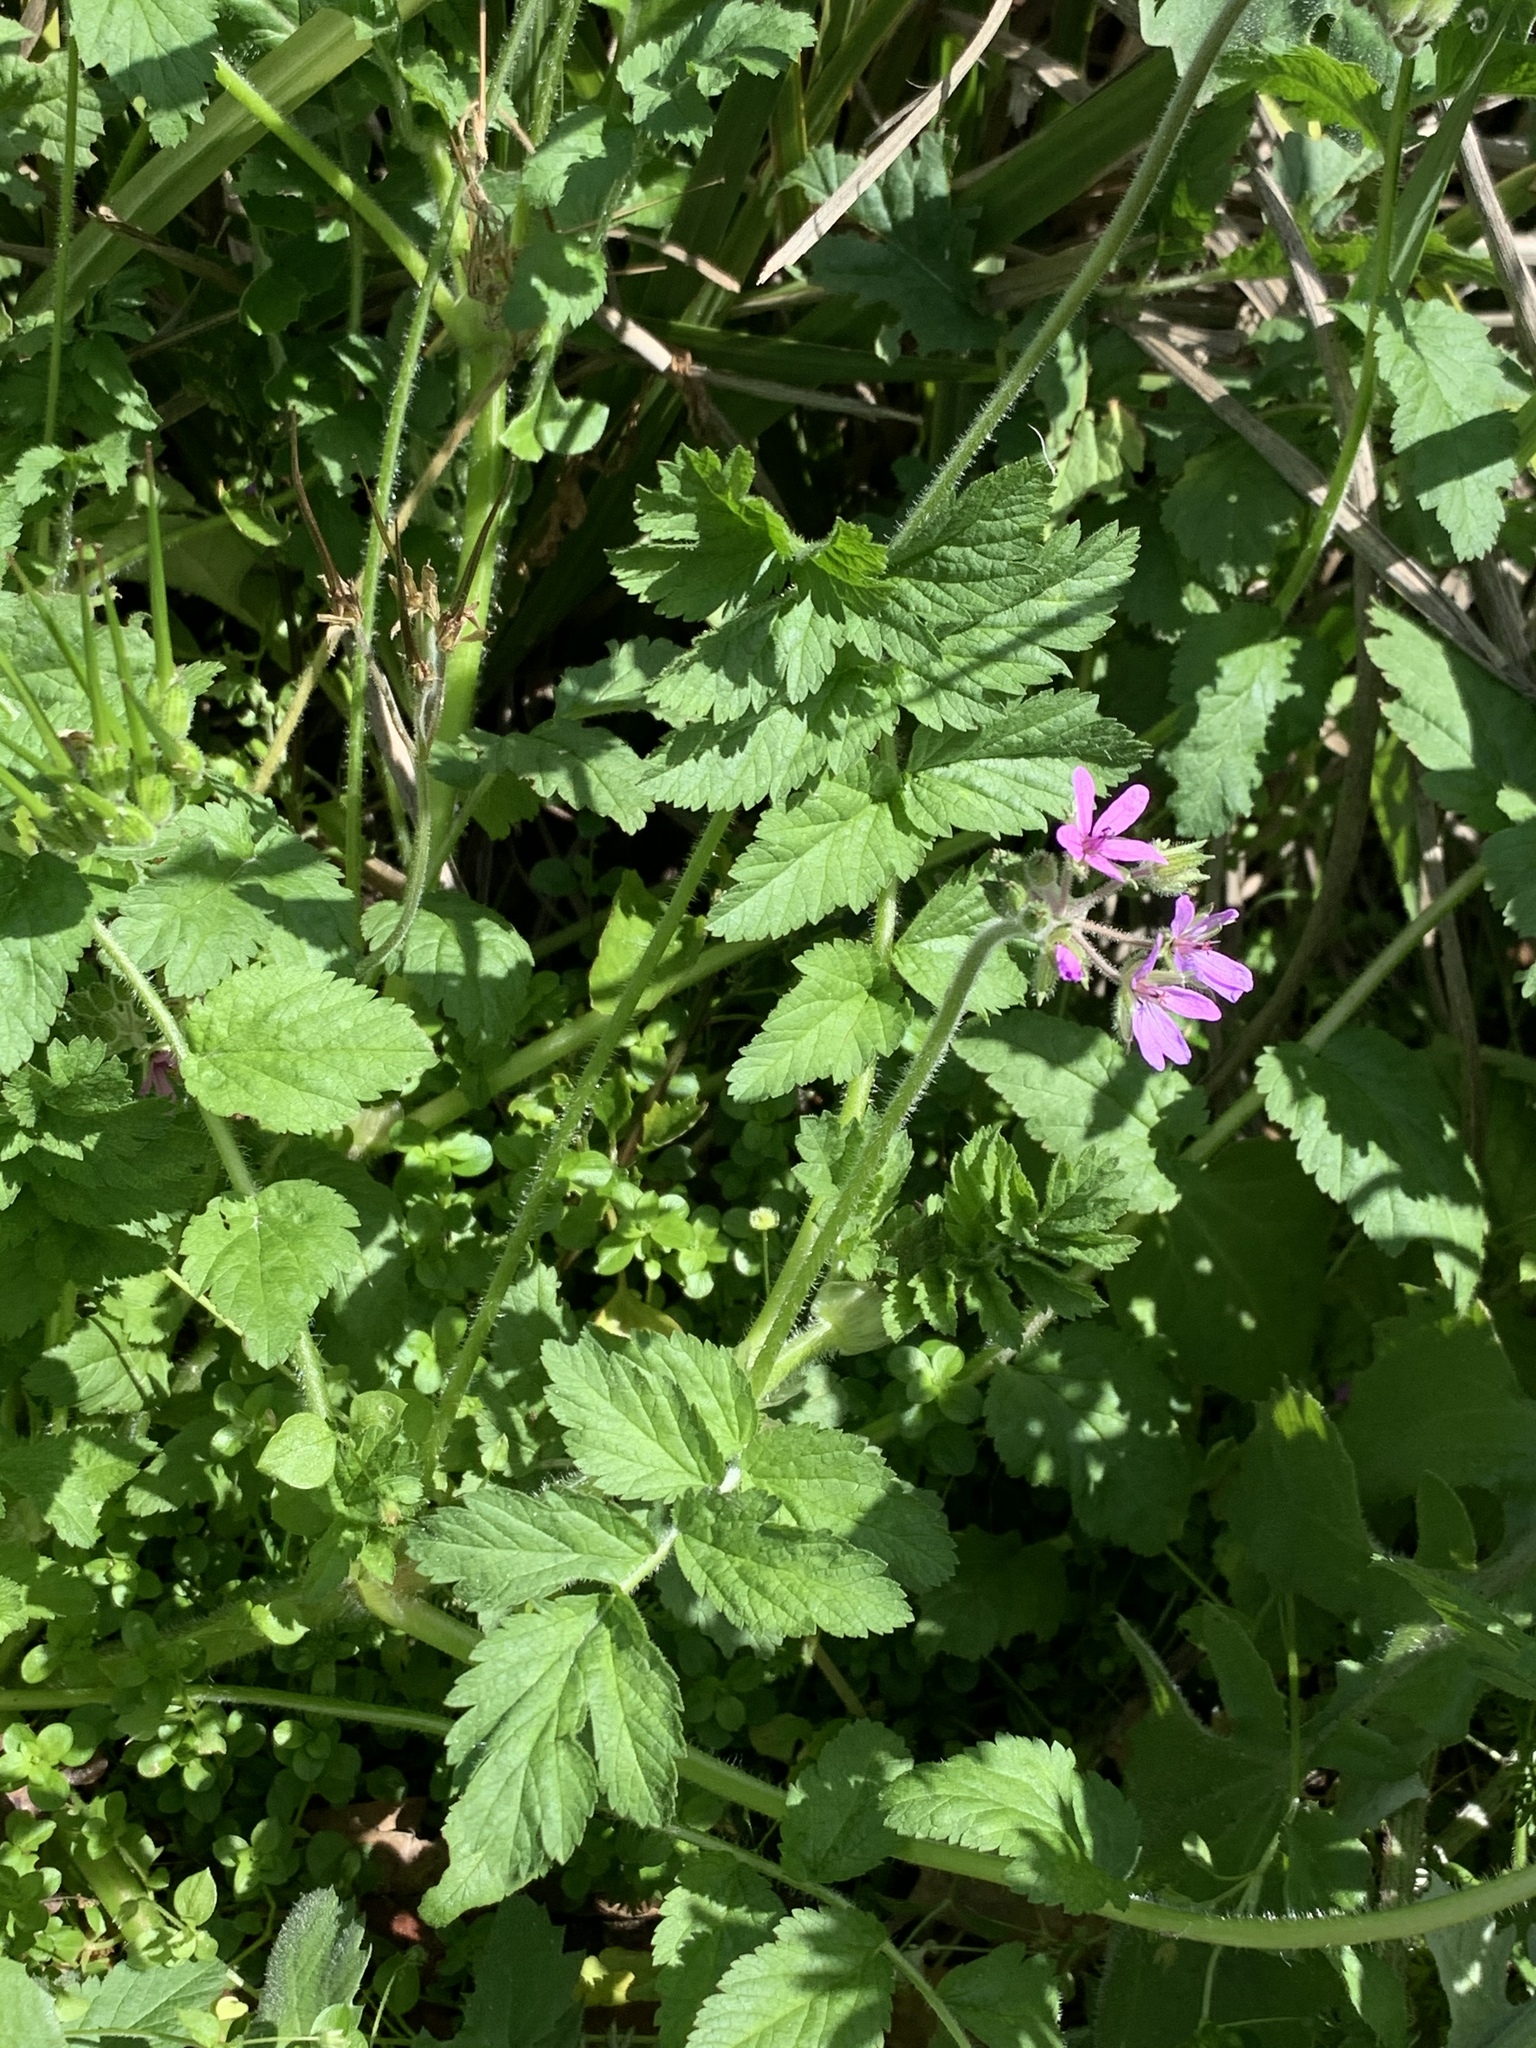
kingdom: Plantae
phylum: Tracheophyta
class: Magnoliopsida
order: Geraniales
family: Geraniaceae
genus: Erodium
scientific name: Erodium moschatum
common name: Musk stork's-bill
